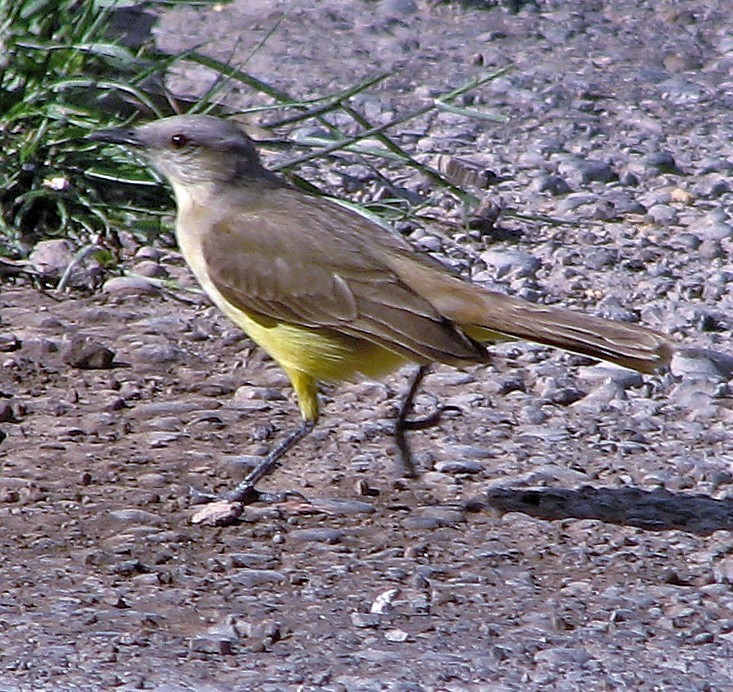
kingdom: Animalia
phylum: Chordata
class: Aves
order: Passeriformes
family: Tyrannidae
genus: Machetornis
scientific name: Machetornis rixosa
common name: Cattle tyrant
